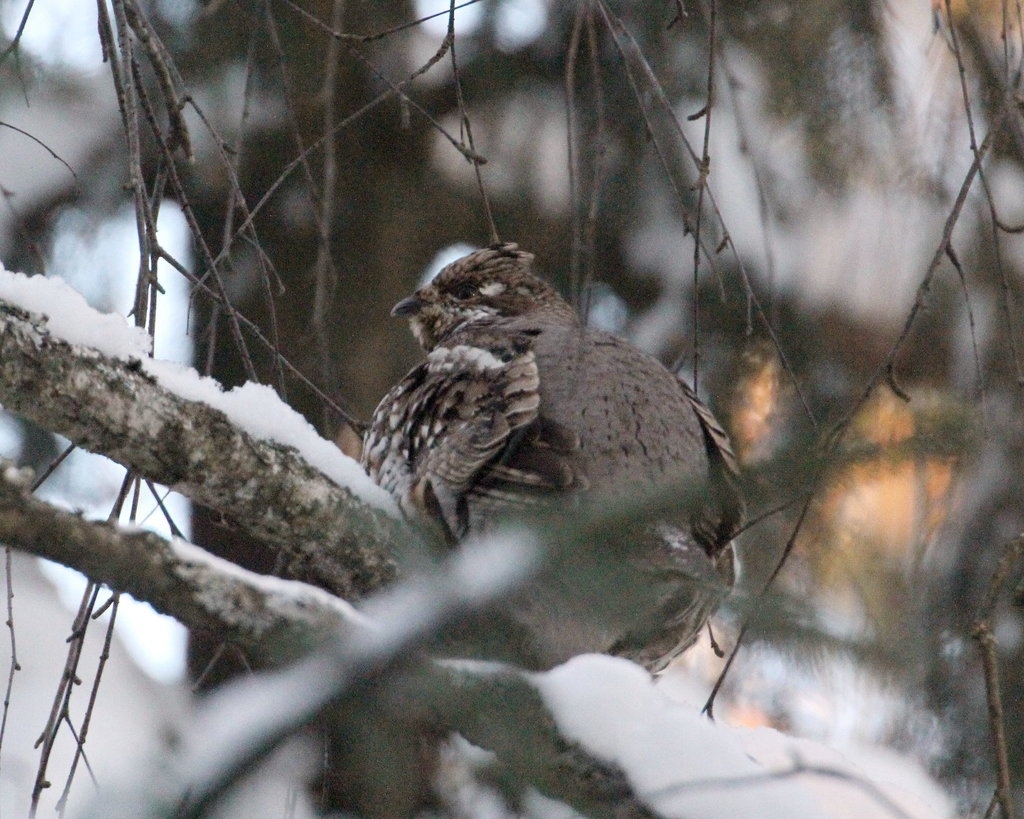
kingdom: Animalia
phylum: Chordata
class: Aves
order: Galliformes
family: Phasianidae
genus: Tetrastes
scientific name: Tetrastes bonasia
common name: Hazel grouse
